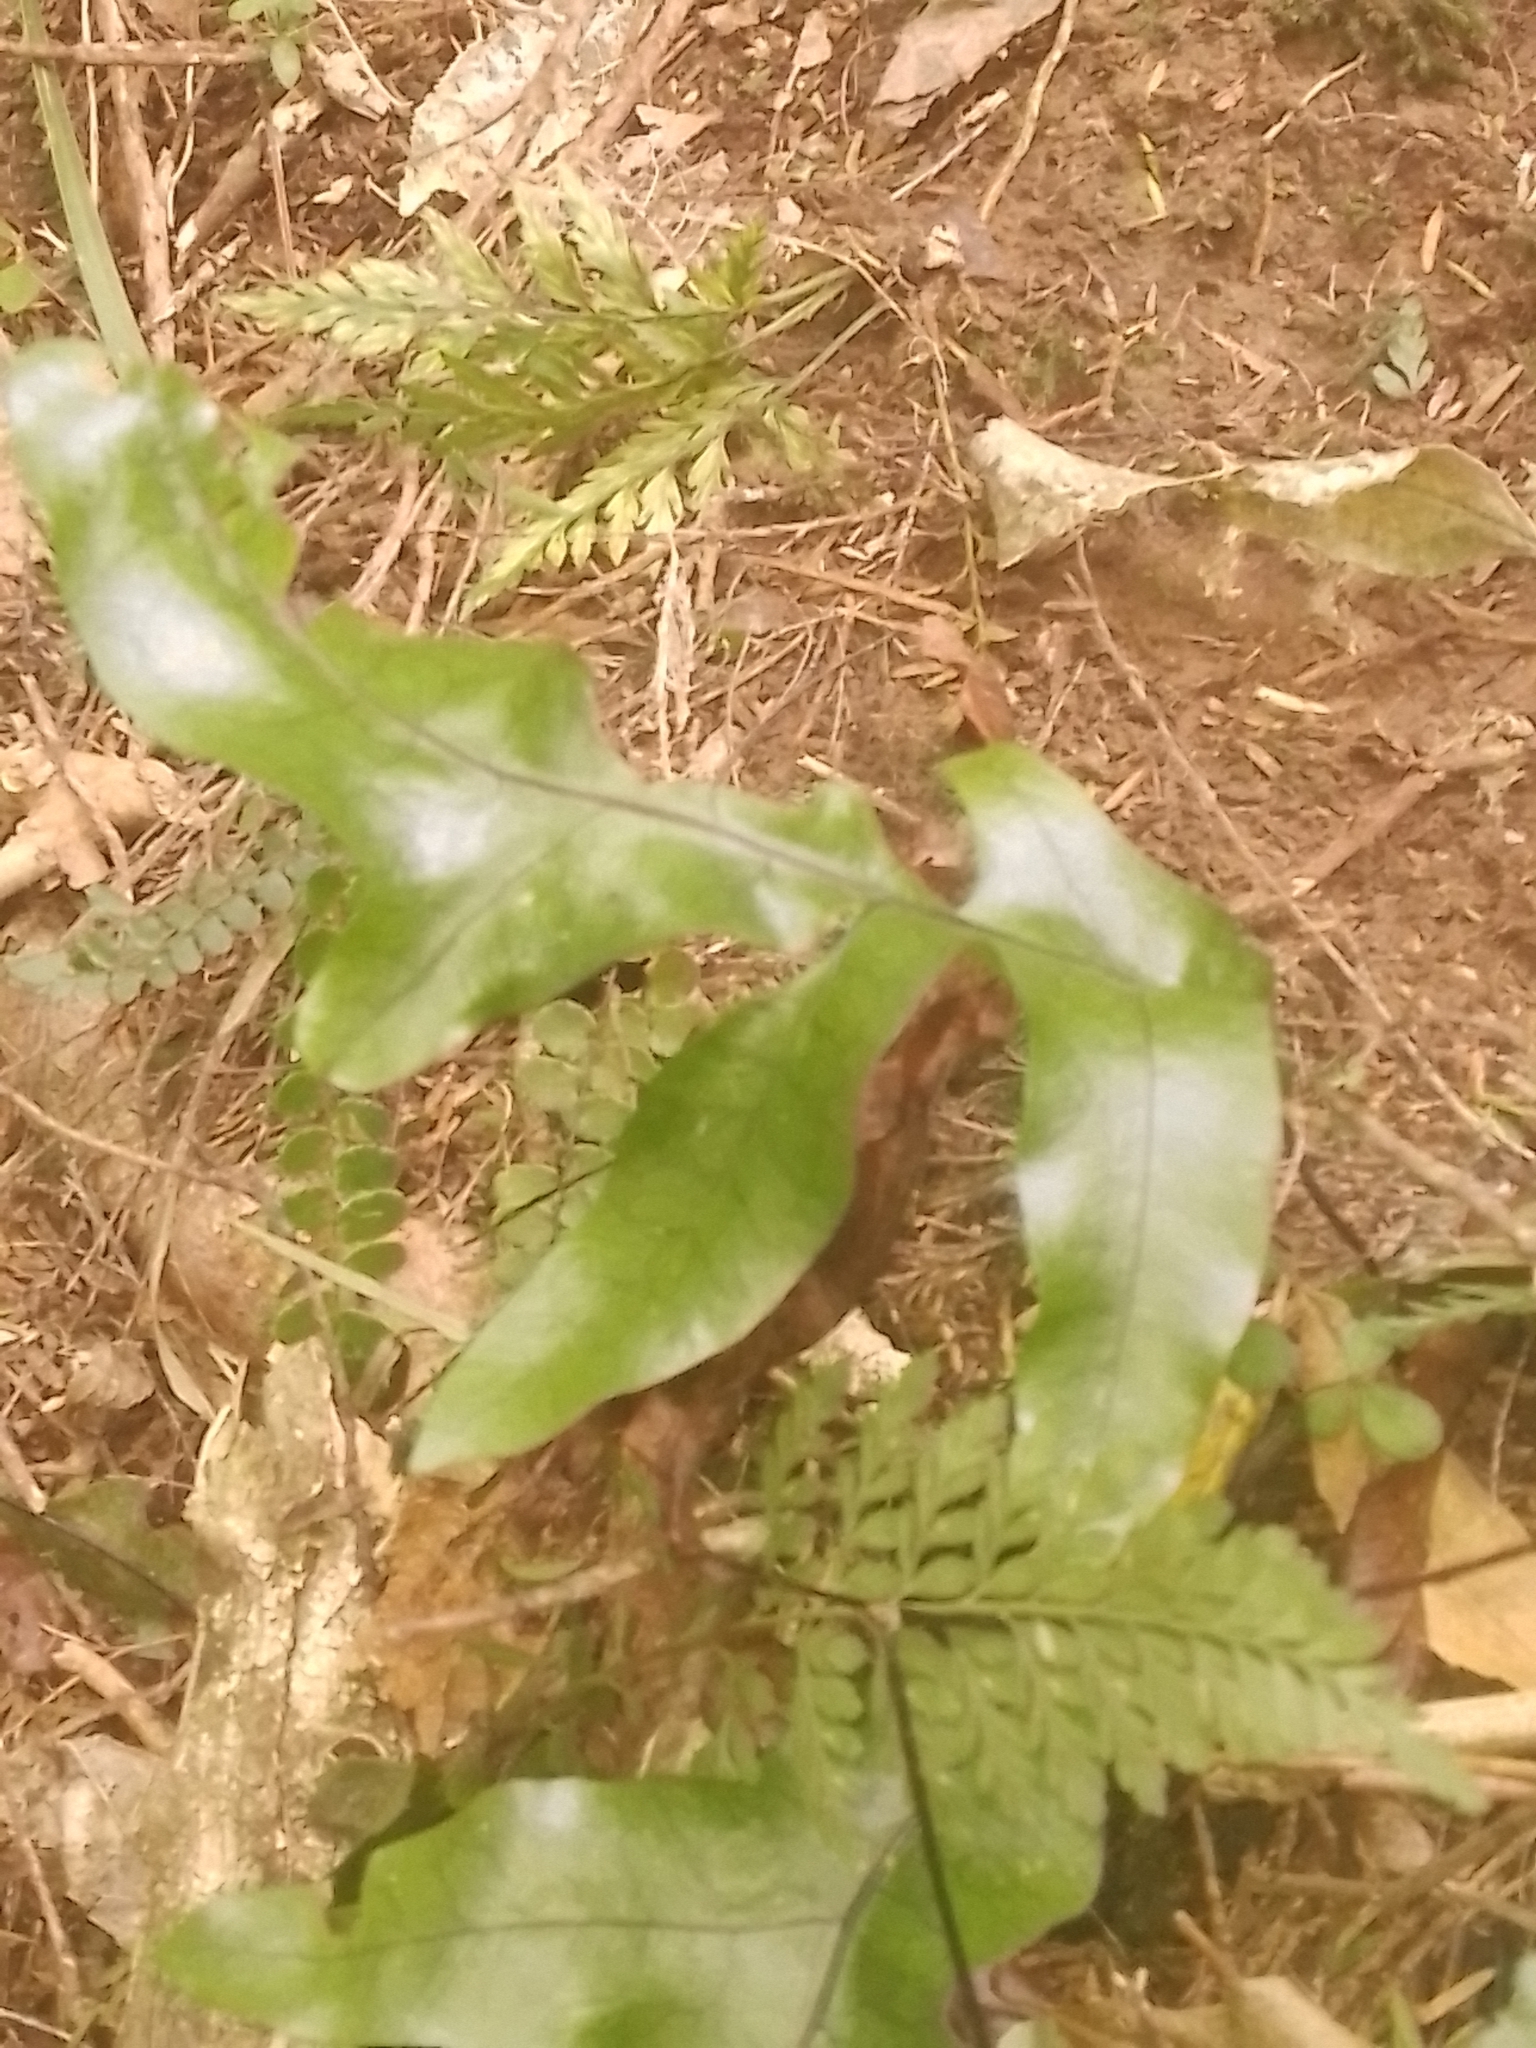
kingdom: Plantae
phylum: Tracheophyta
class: Polypodiopsida
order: Polypodiales
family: Polypodiaceae
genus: Lecanopteris
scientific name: Lecanopteris pustulata
